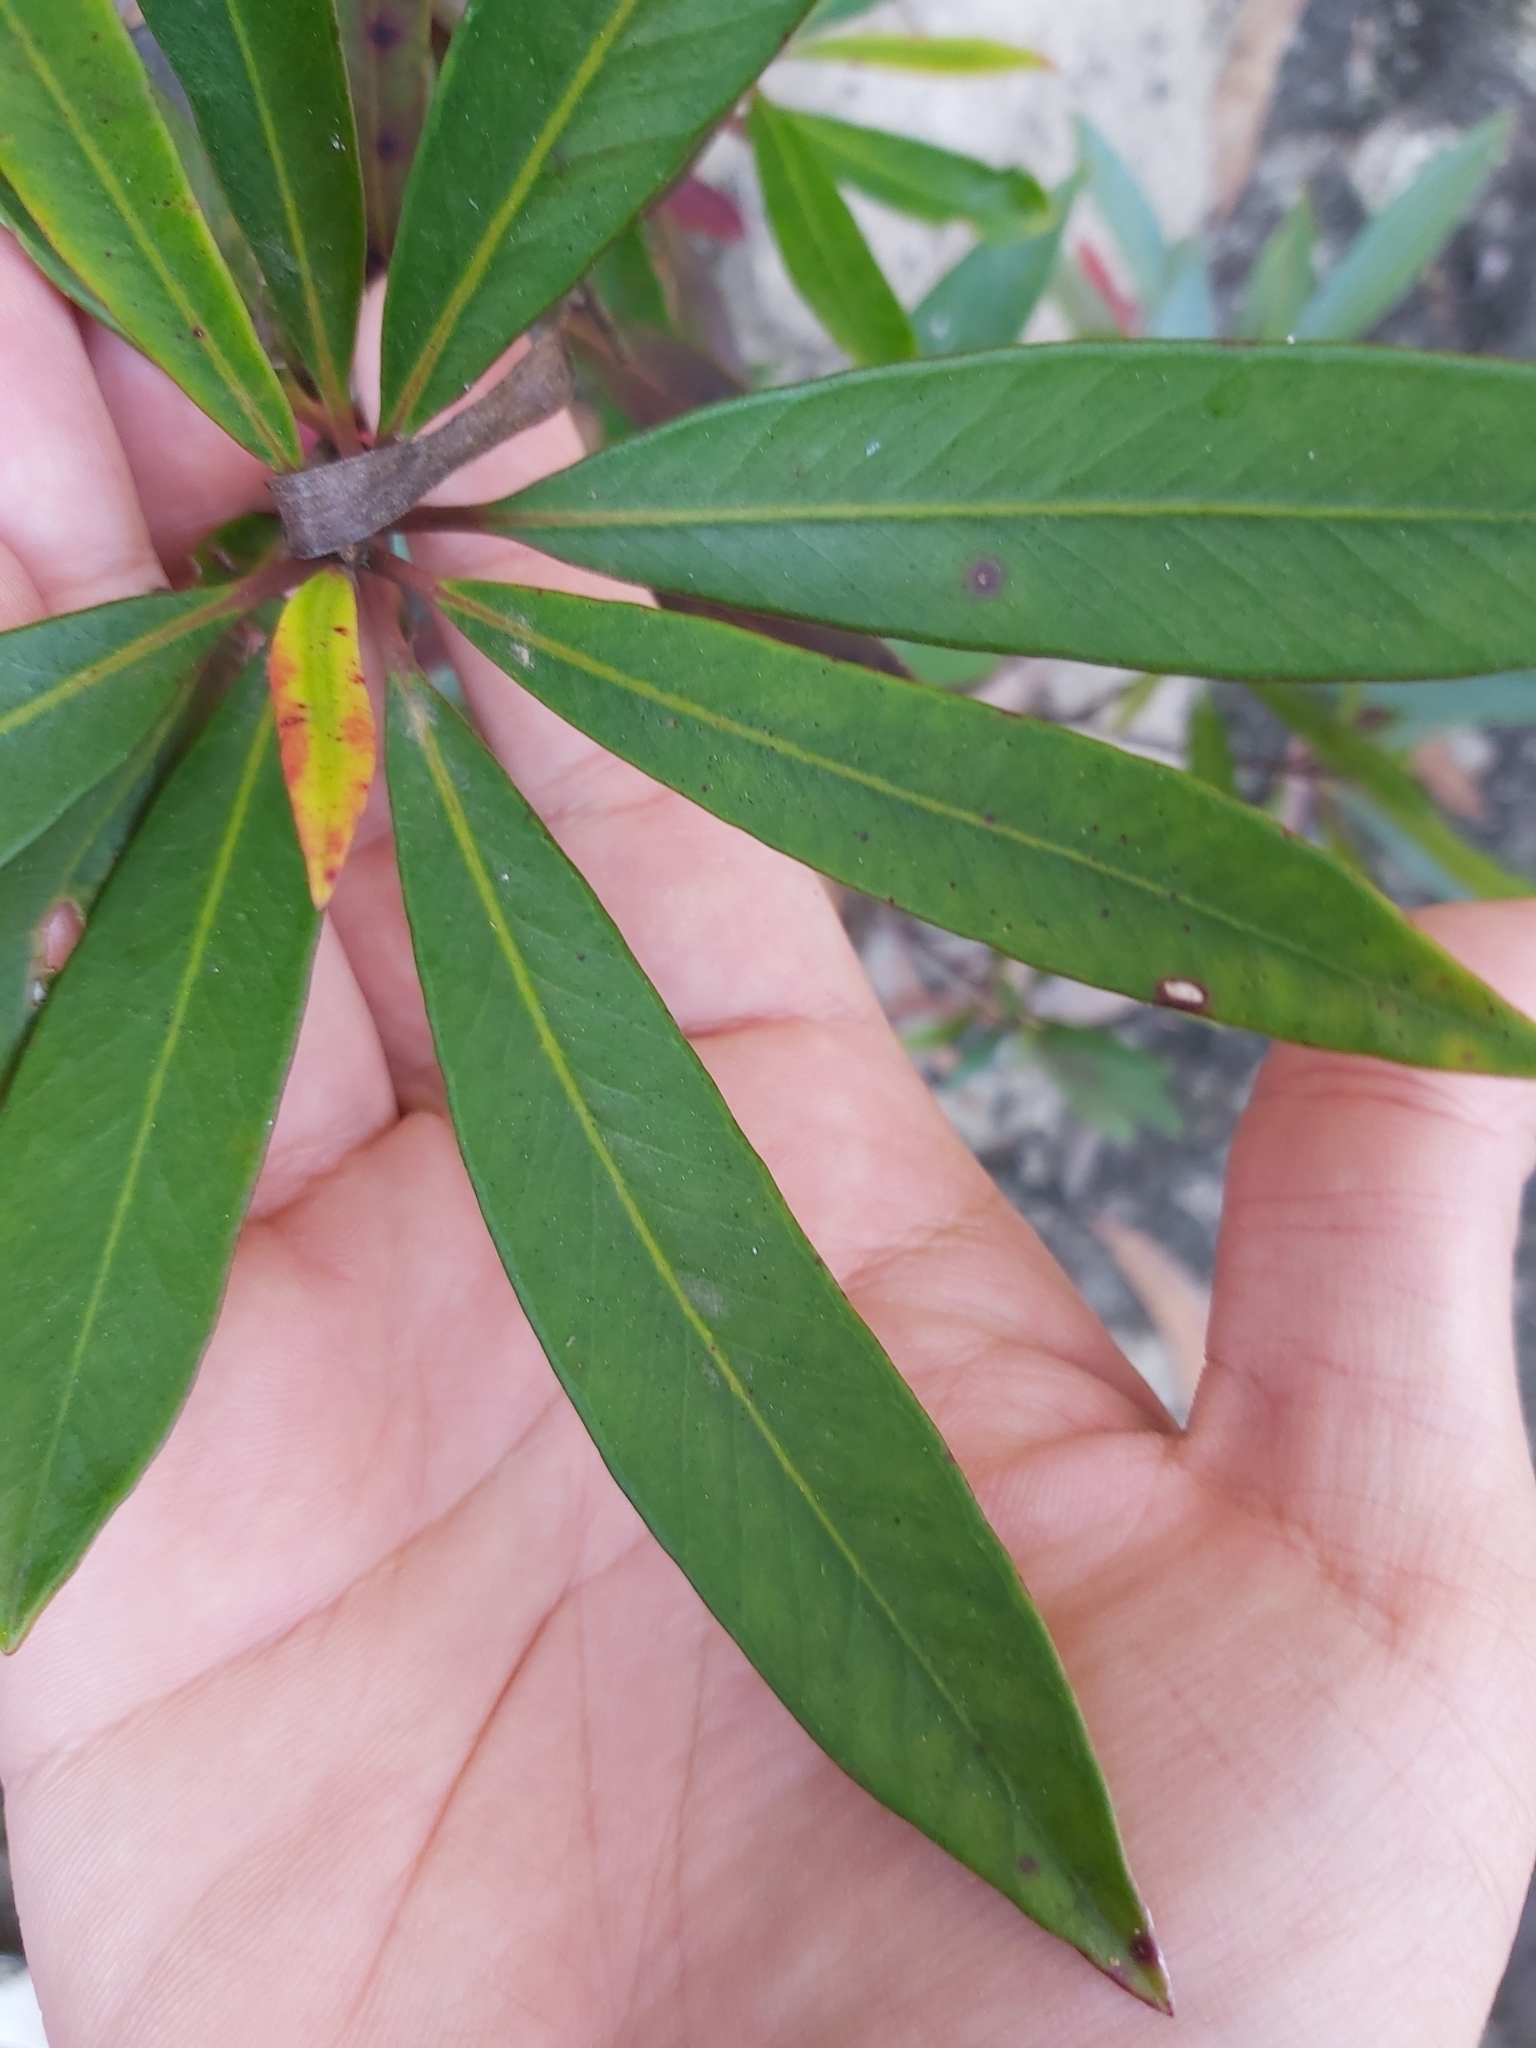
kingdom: Plantae
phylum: Tracheophyta
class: Magnoliopsida
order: Myrtales
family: Myrtaceae
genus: Tristaniopsis
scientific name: Tristaniopsis laurina
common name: Water-gum
